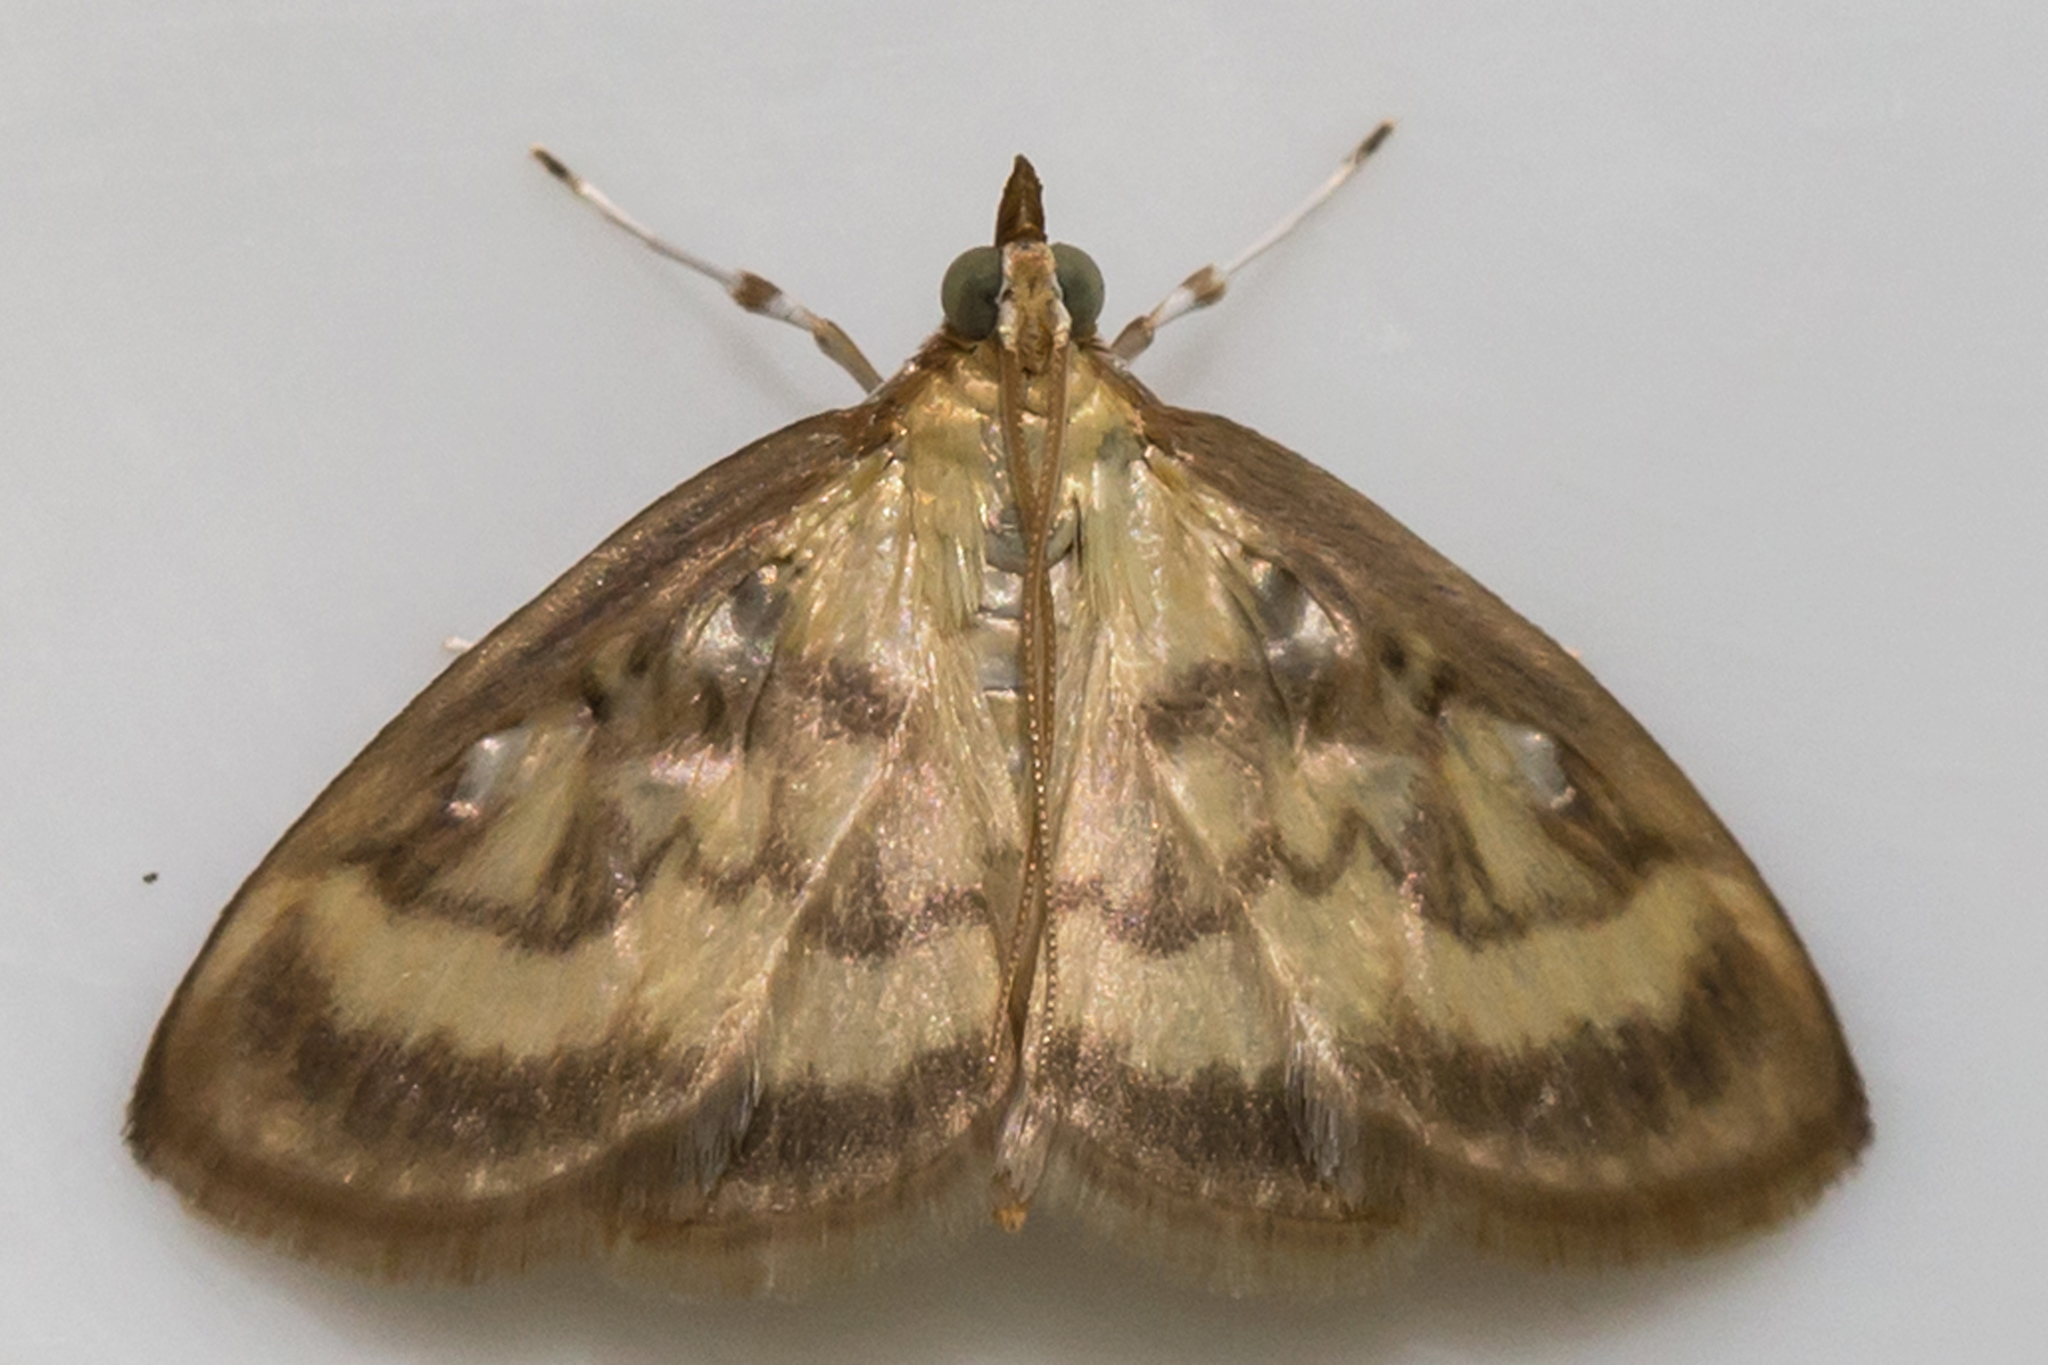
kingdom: Animalia
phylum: Arthropoda
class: Insecta
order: Lepidoptera
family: Crambidae
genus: Crocidophora
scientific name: Crocidophora tuberculalis
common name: Pale-winged crocidiphora moth
